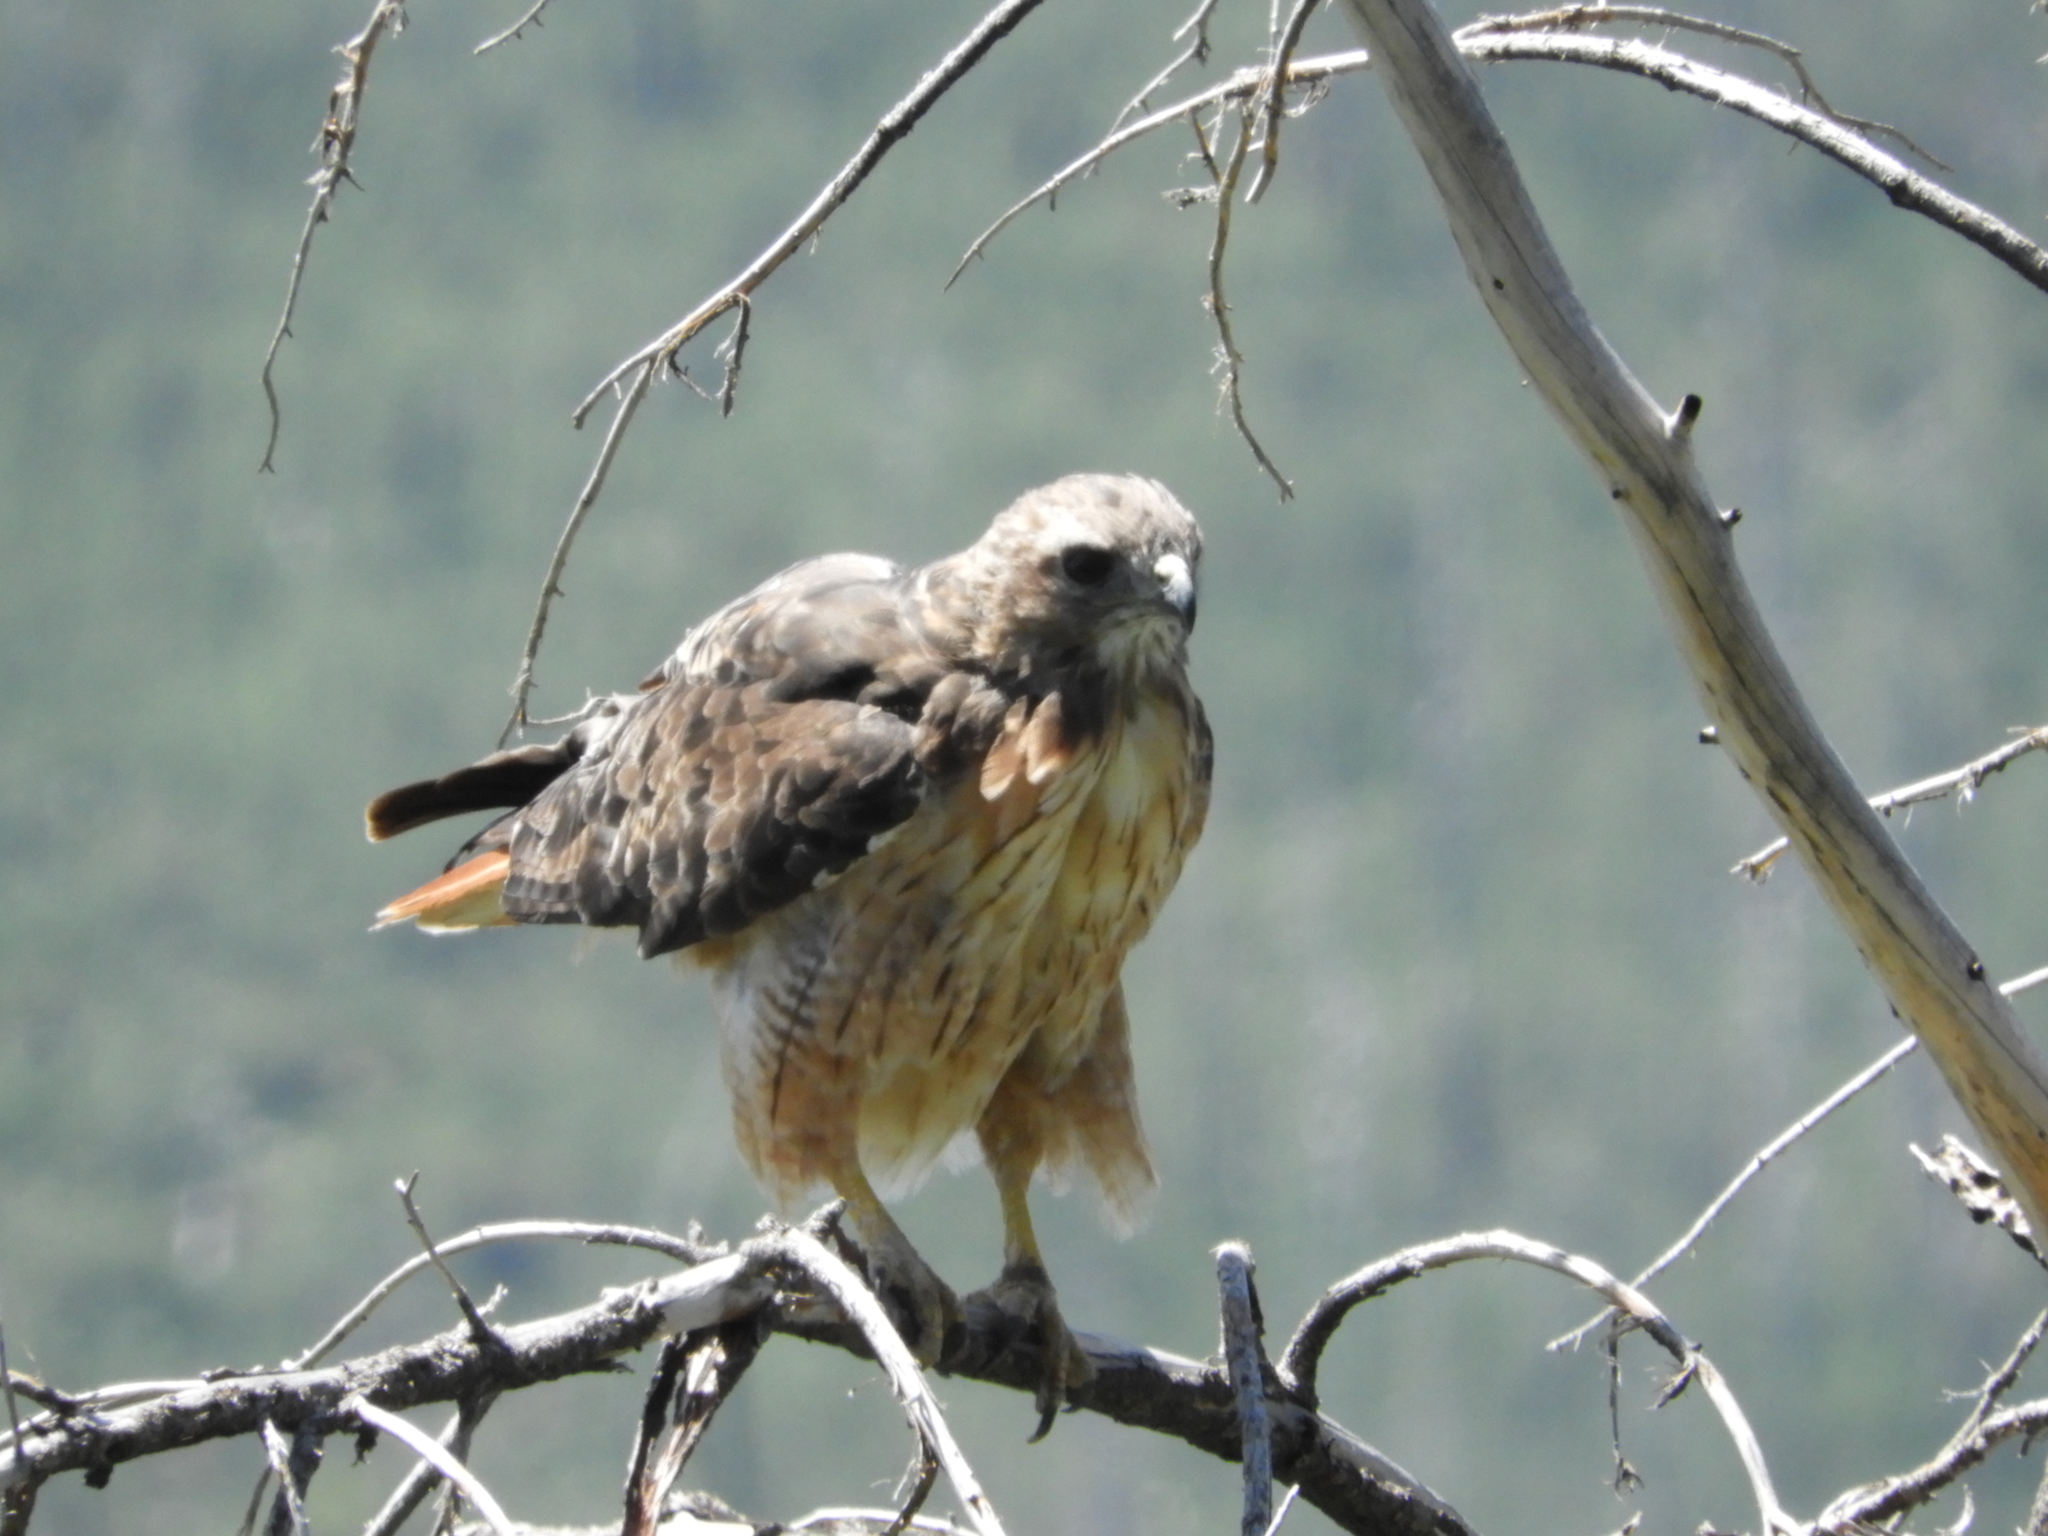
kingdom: Animalia
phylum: Chordata
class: Aves
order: Accipitriformes
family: Accipitridae
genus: Buteo
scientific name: Buteo jamaicensis
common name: Red-tailed hawk
